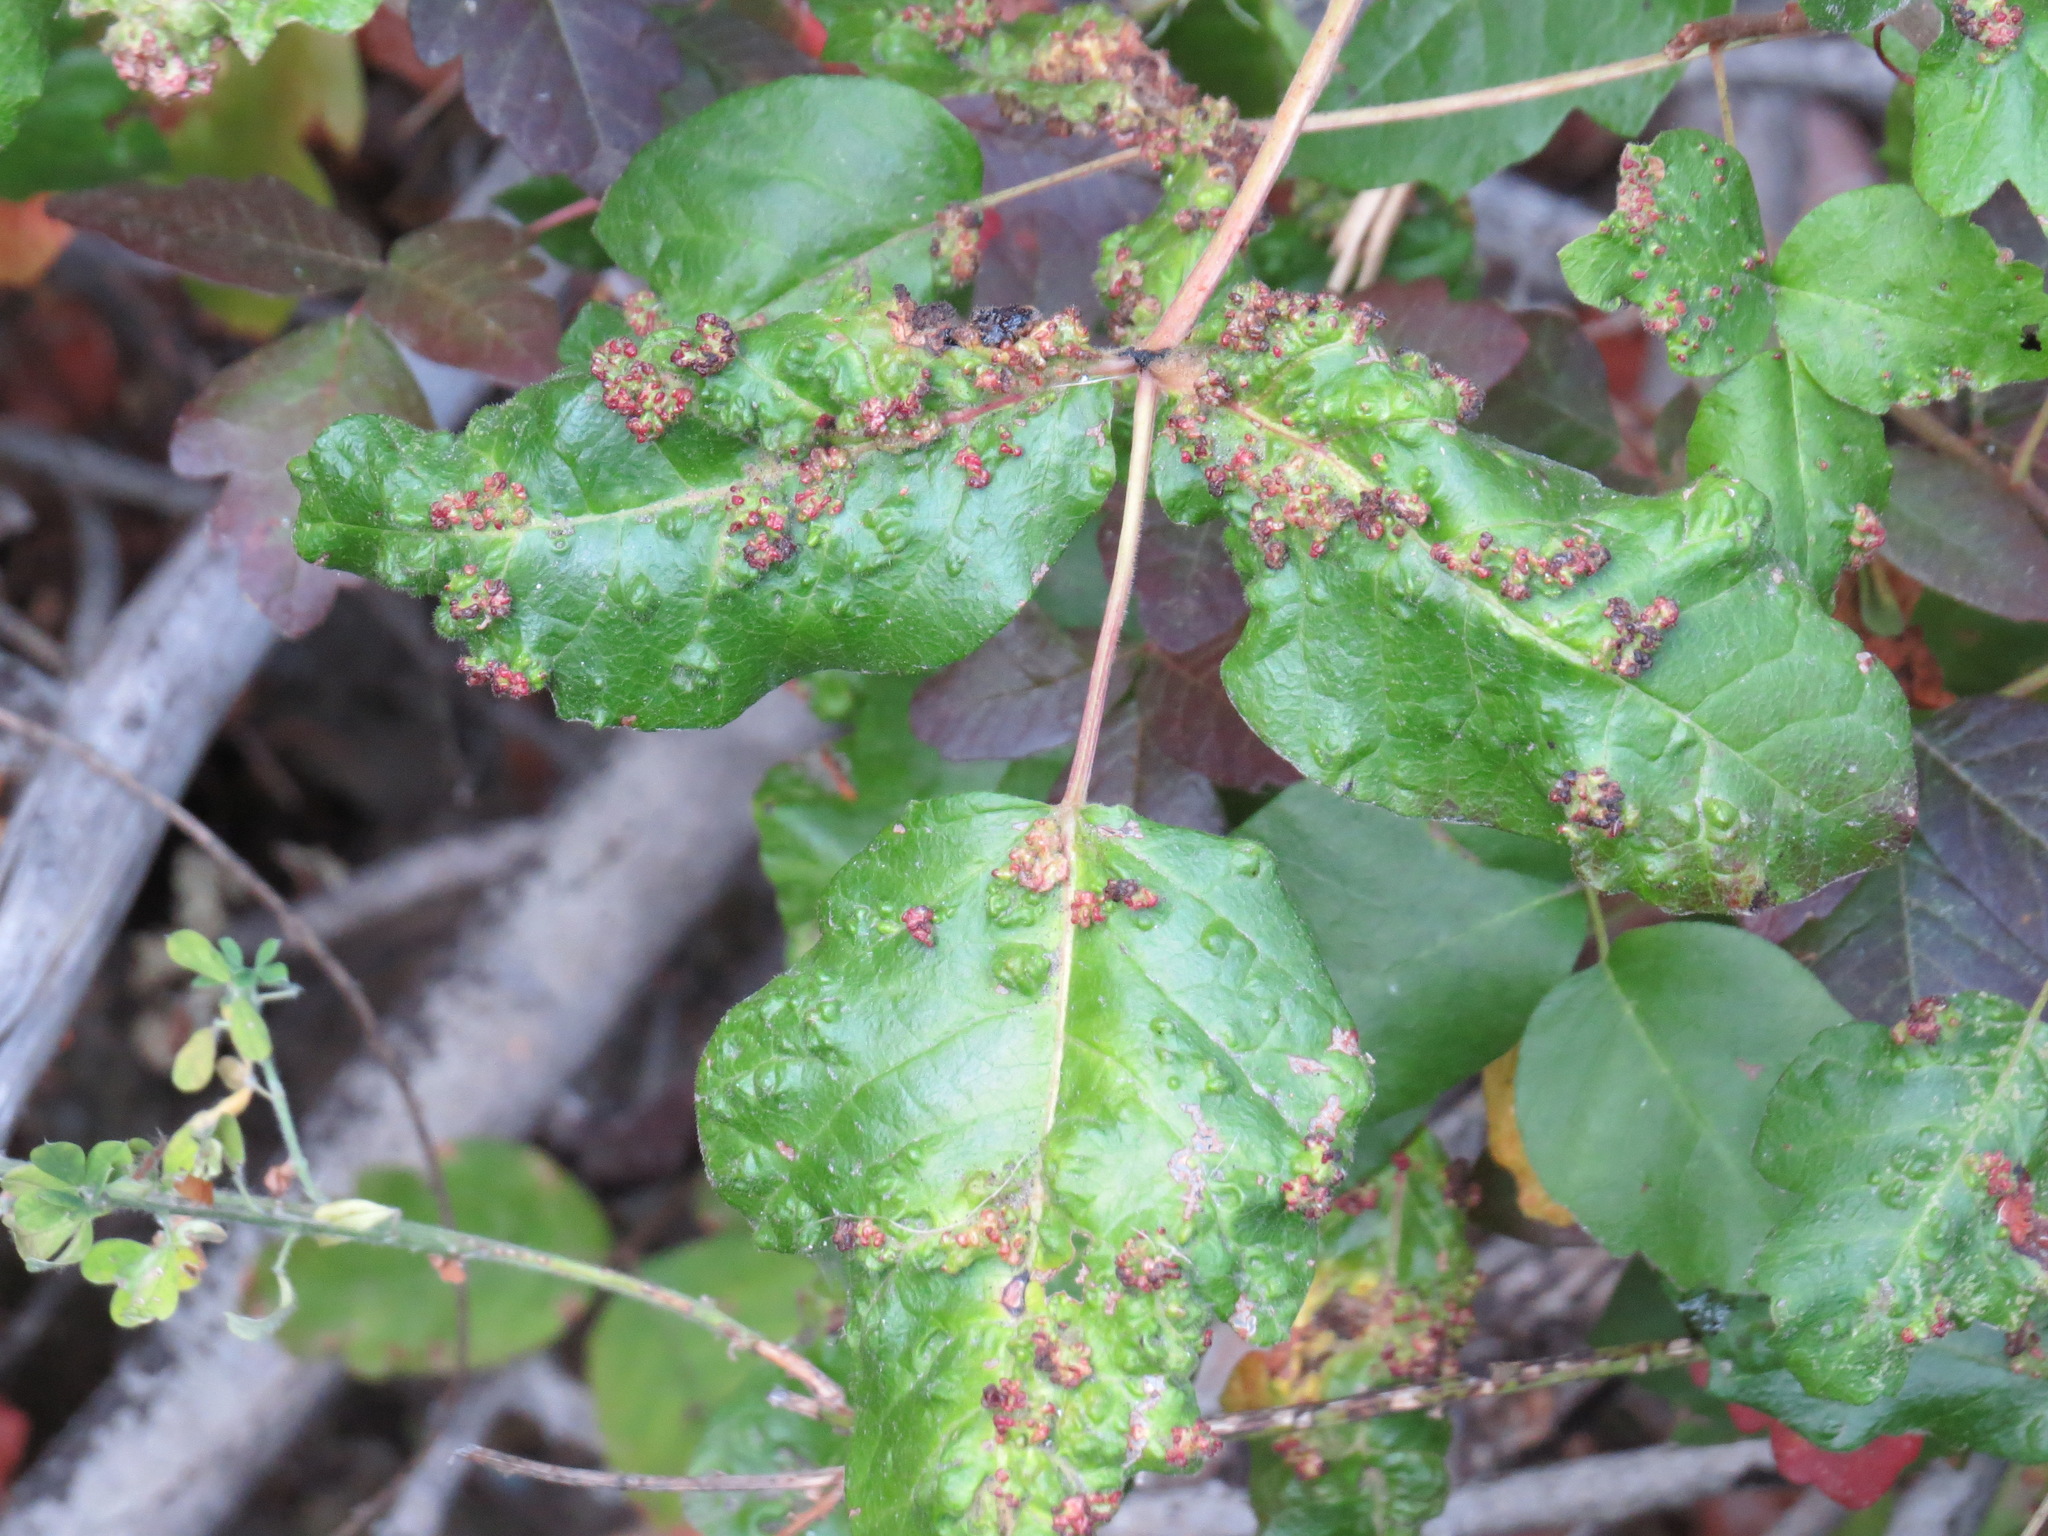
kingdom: Animalia
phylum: Arthropoda
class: Arachnida
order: Trombidiformes
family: Eriophyidae
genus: Aculops
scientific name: Aculops
